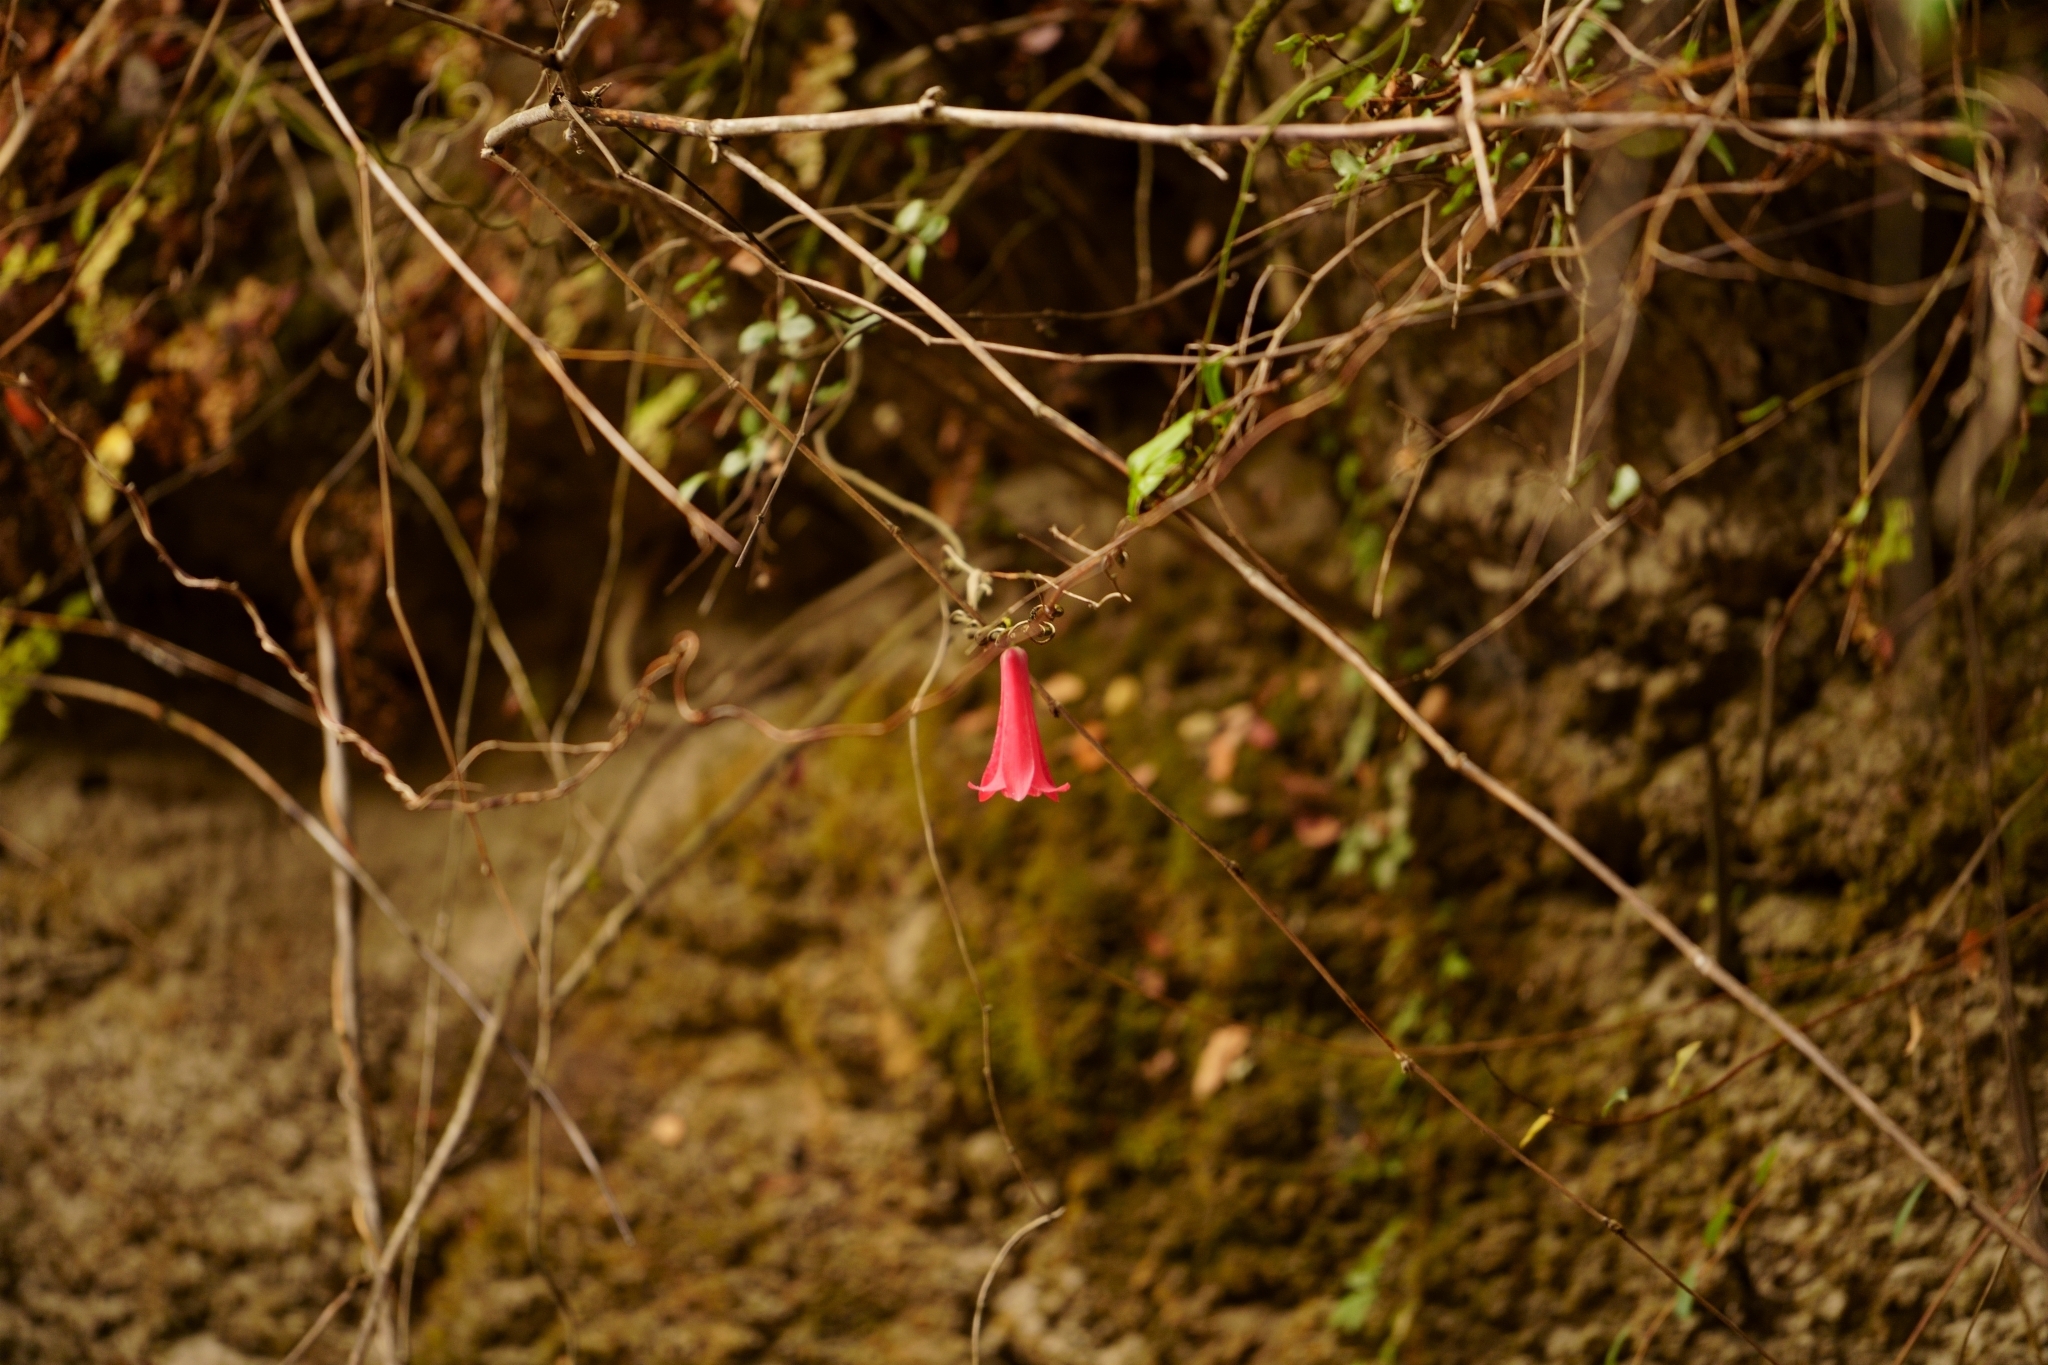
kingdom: Plantae
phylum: Tracheophyta
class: Liliopsida
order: Liliales
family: Philesiaceae
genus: Lapageria
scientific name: Lapageria rosea
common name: Chilean-bellflower
